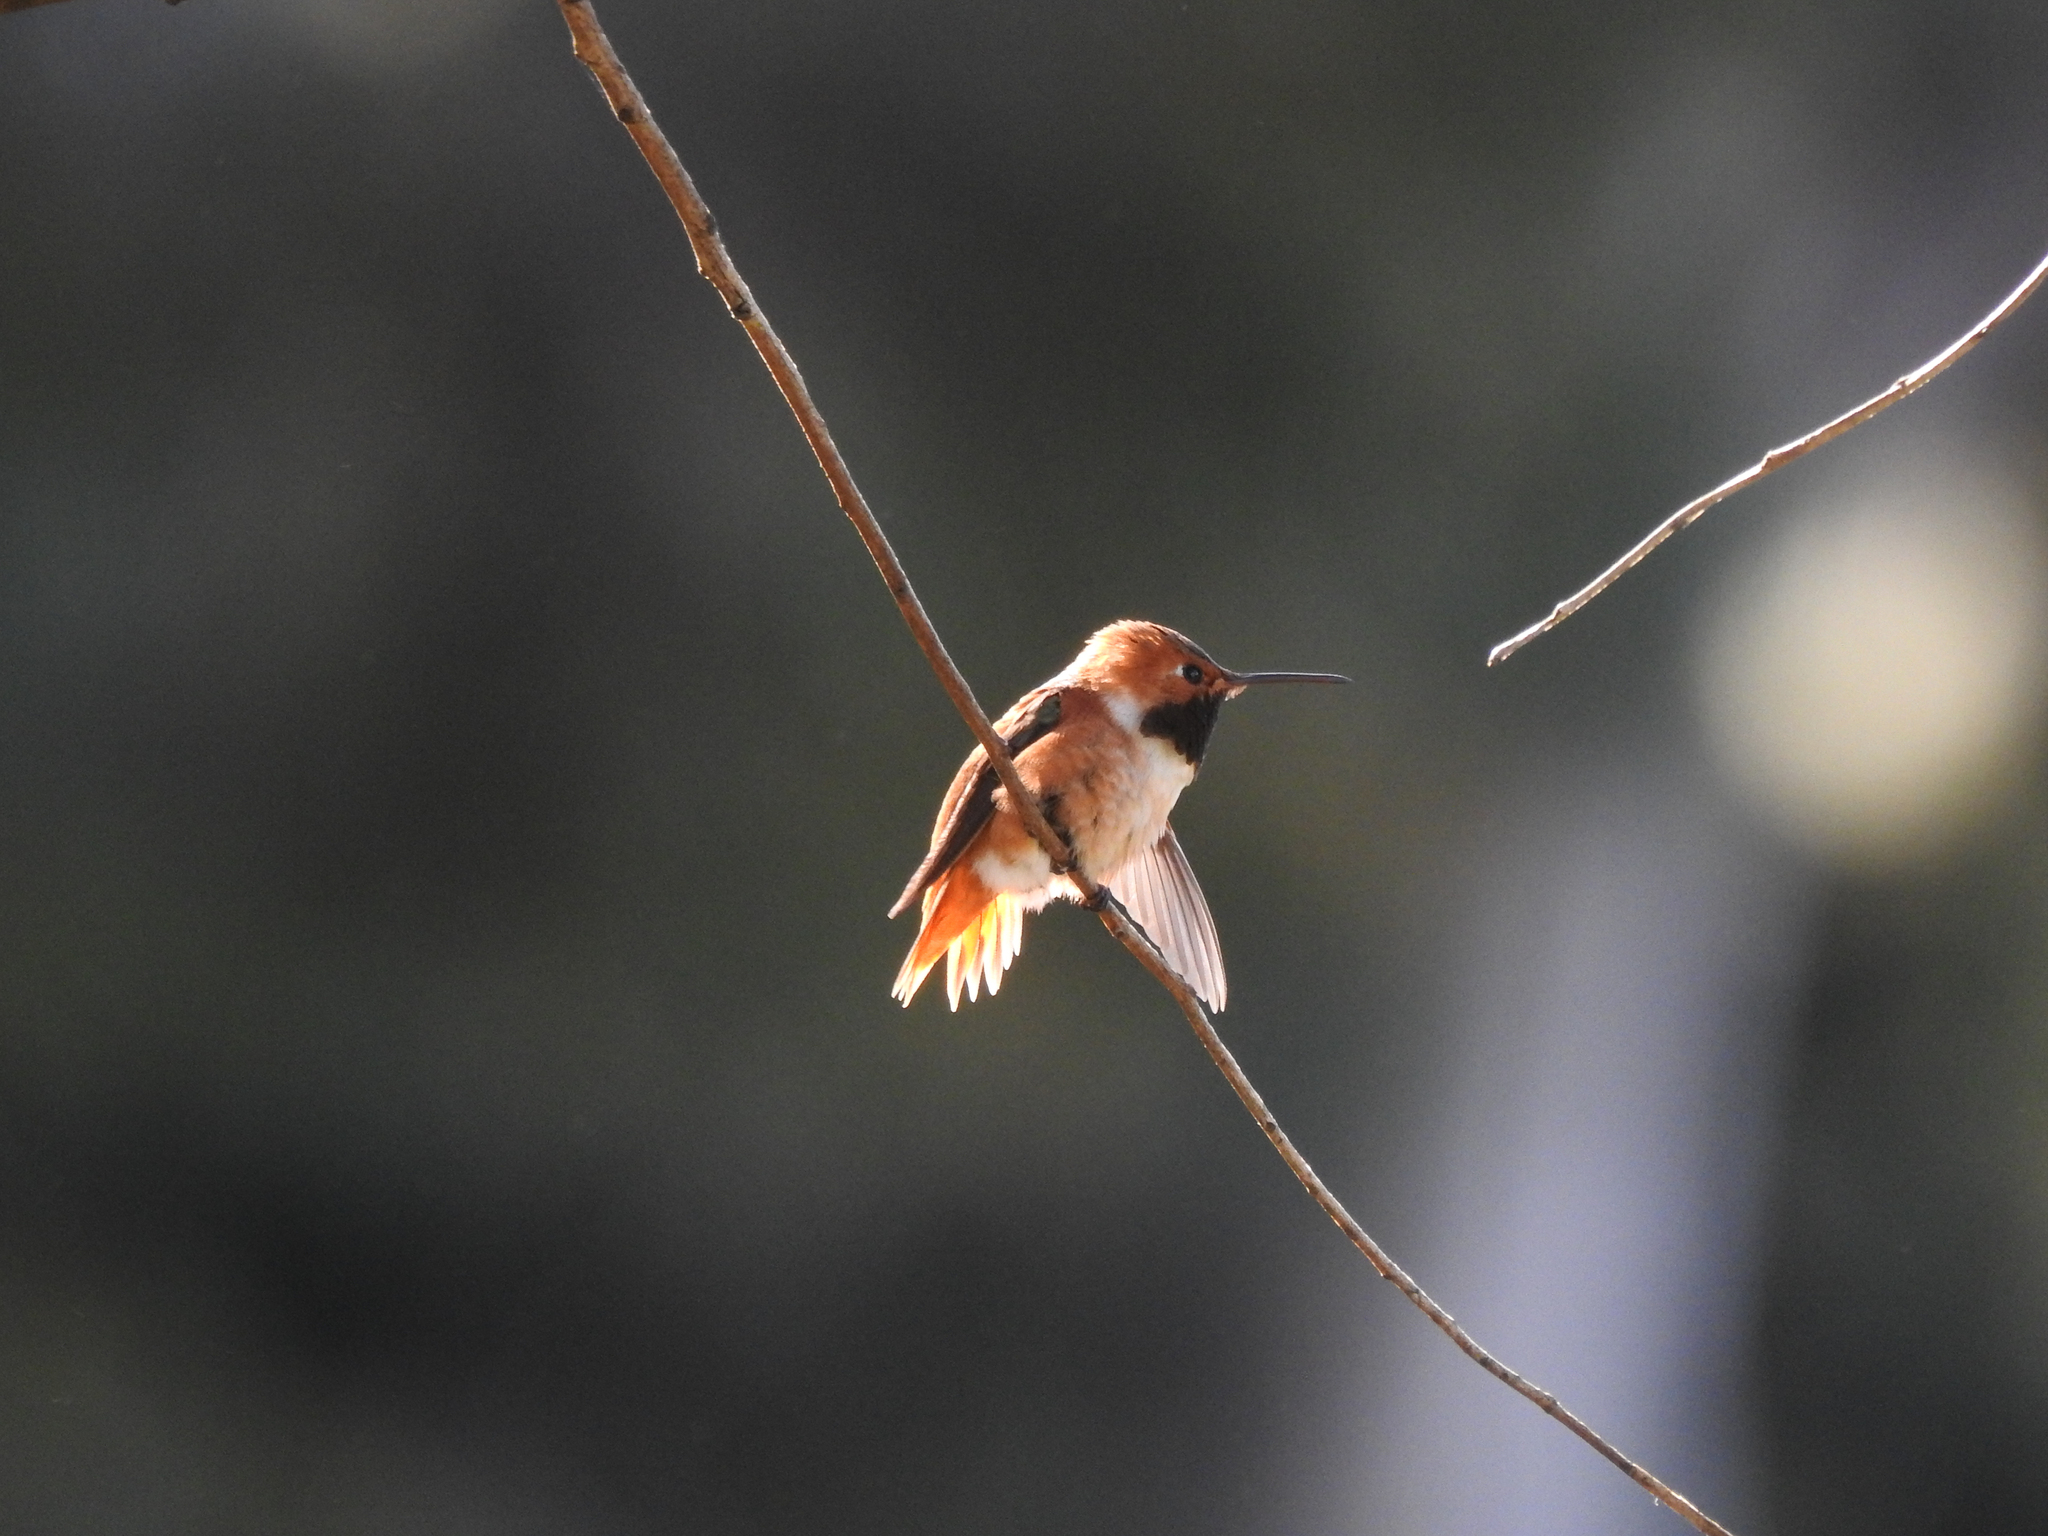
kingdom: Animalia
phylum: Chordata
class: Aves
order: Apodiformes
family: Trochilidae
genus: Selasphorus
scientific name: Selasphorus sasin
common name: Allen's hummingbird
